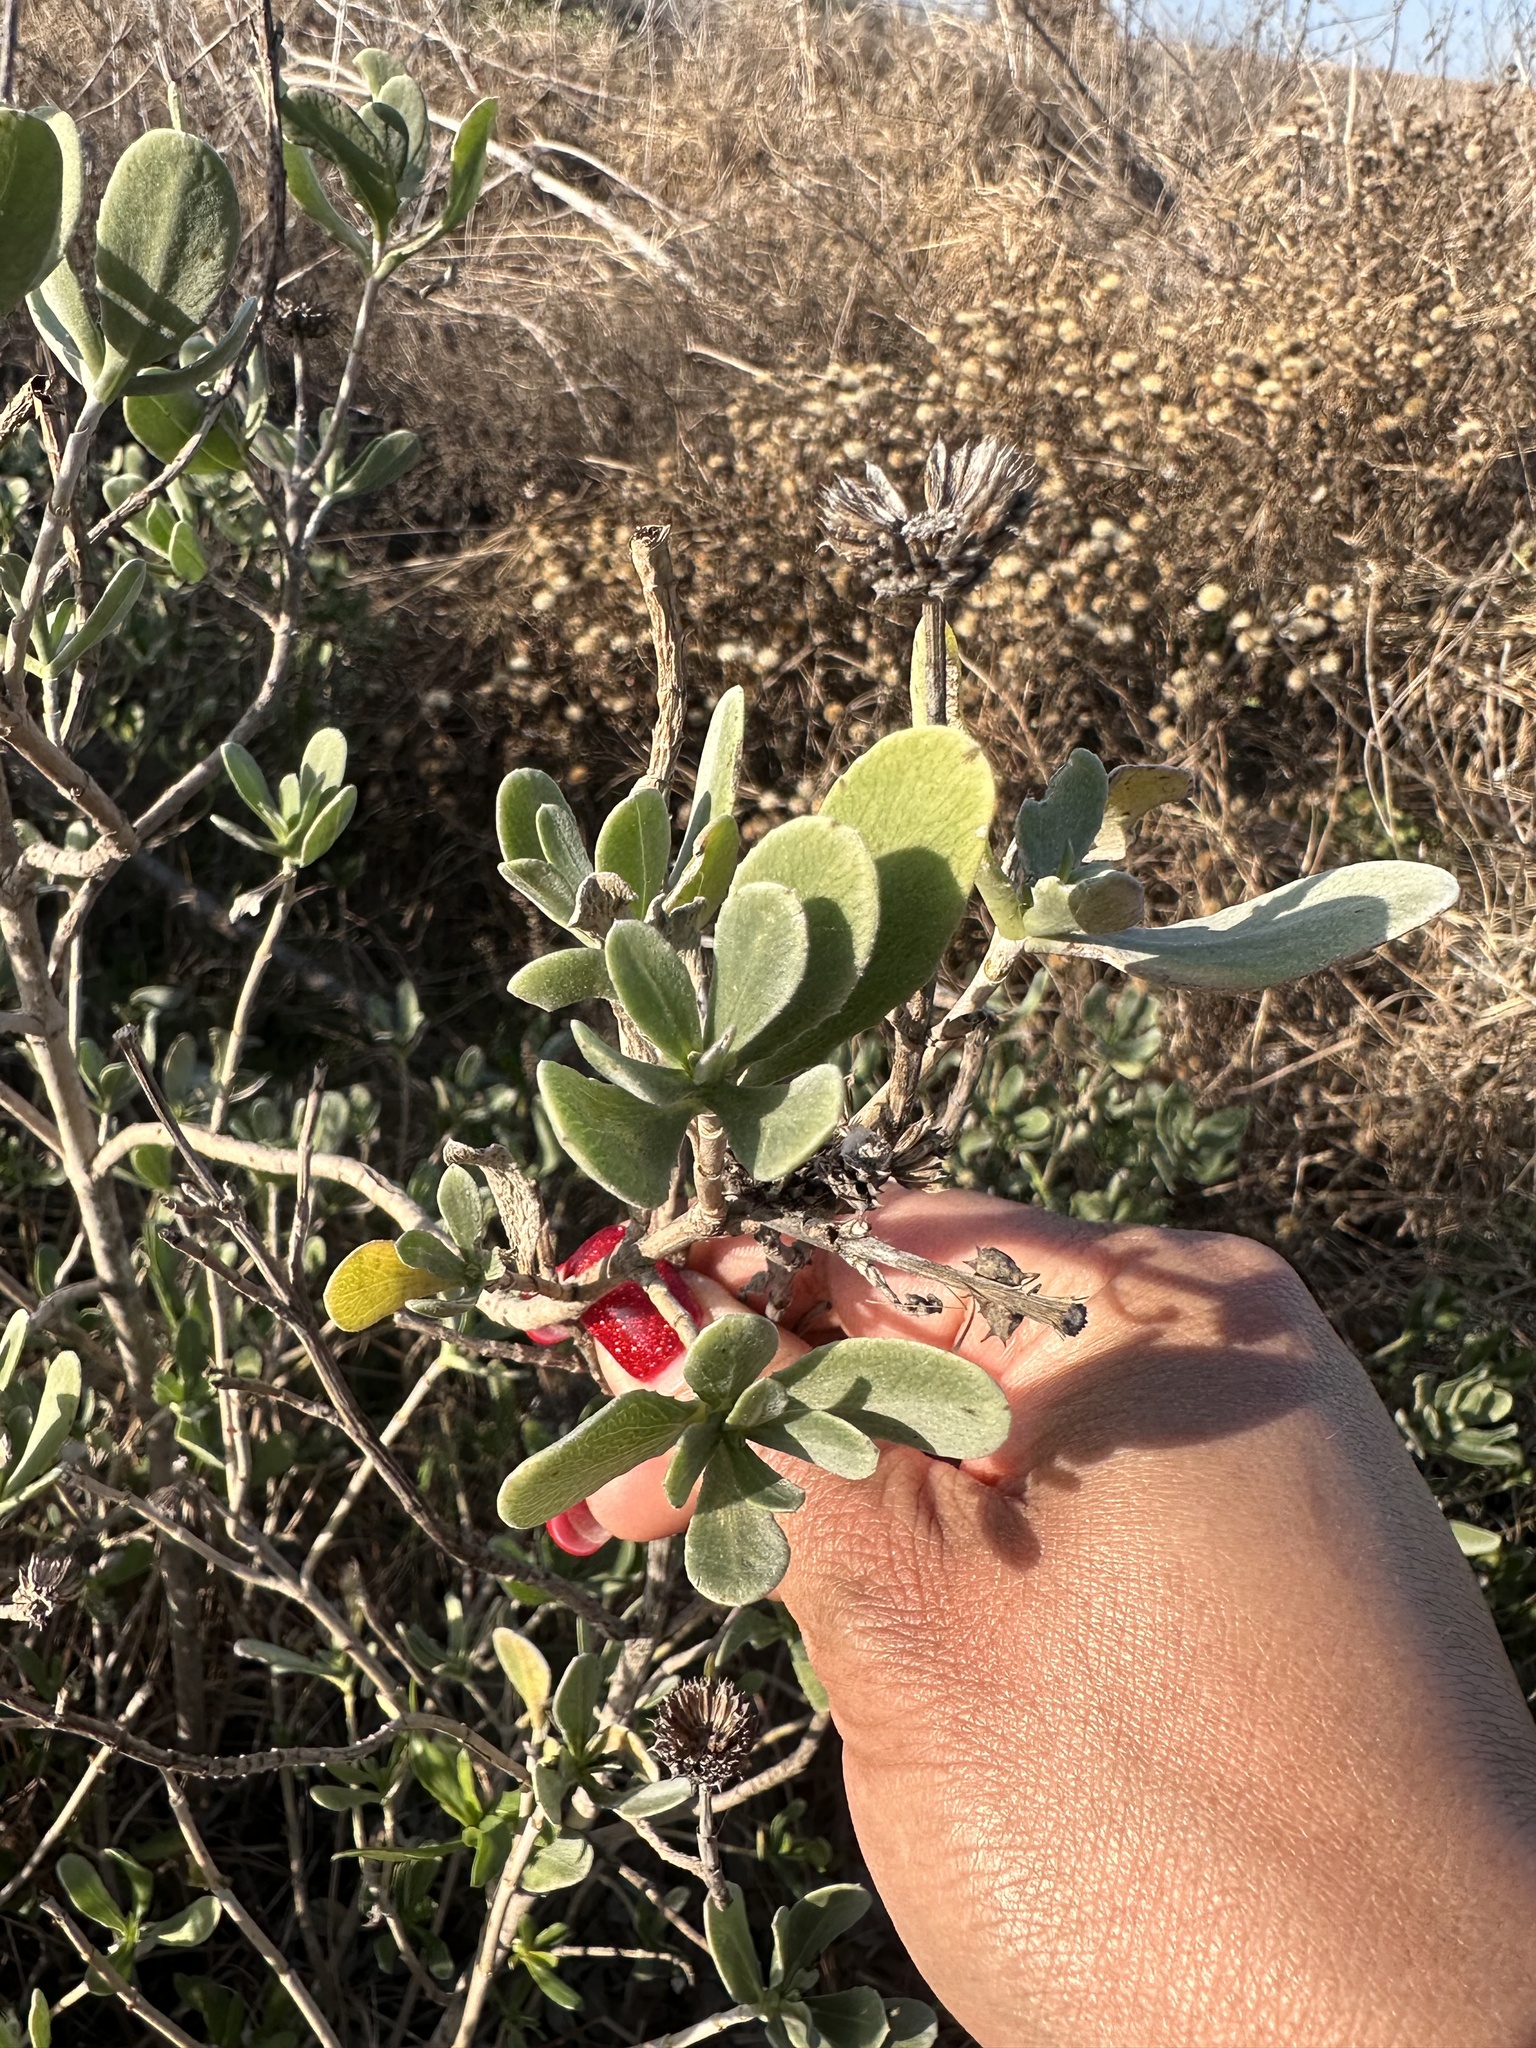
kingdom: Plantae
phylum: Tracheophyta
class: Magnoliopsida
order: Asterales
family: Asteraceae
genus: Borrichia
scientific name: Borrichia frutescens
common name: Sea oxeye
